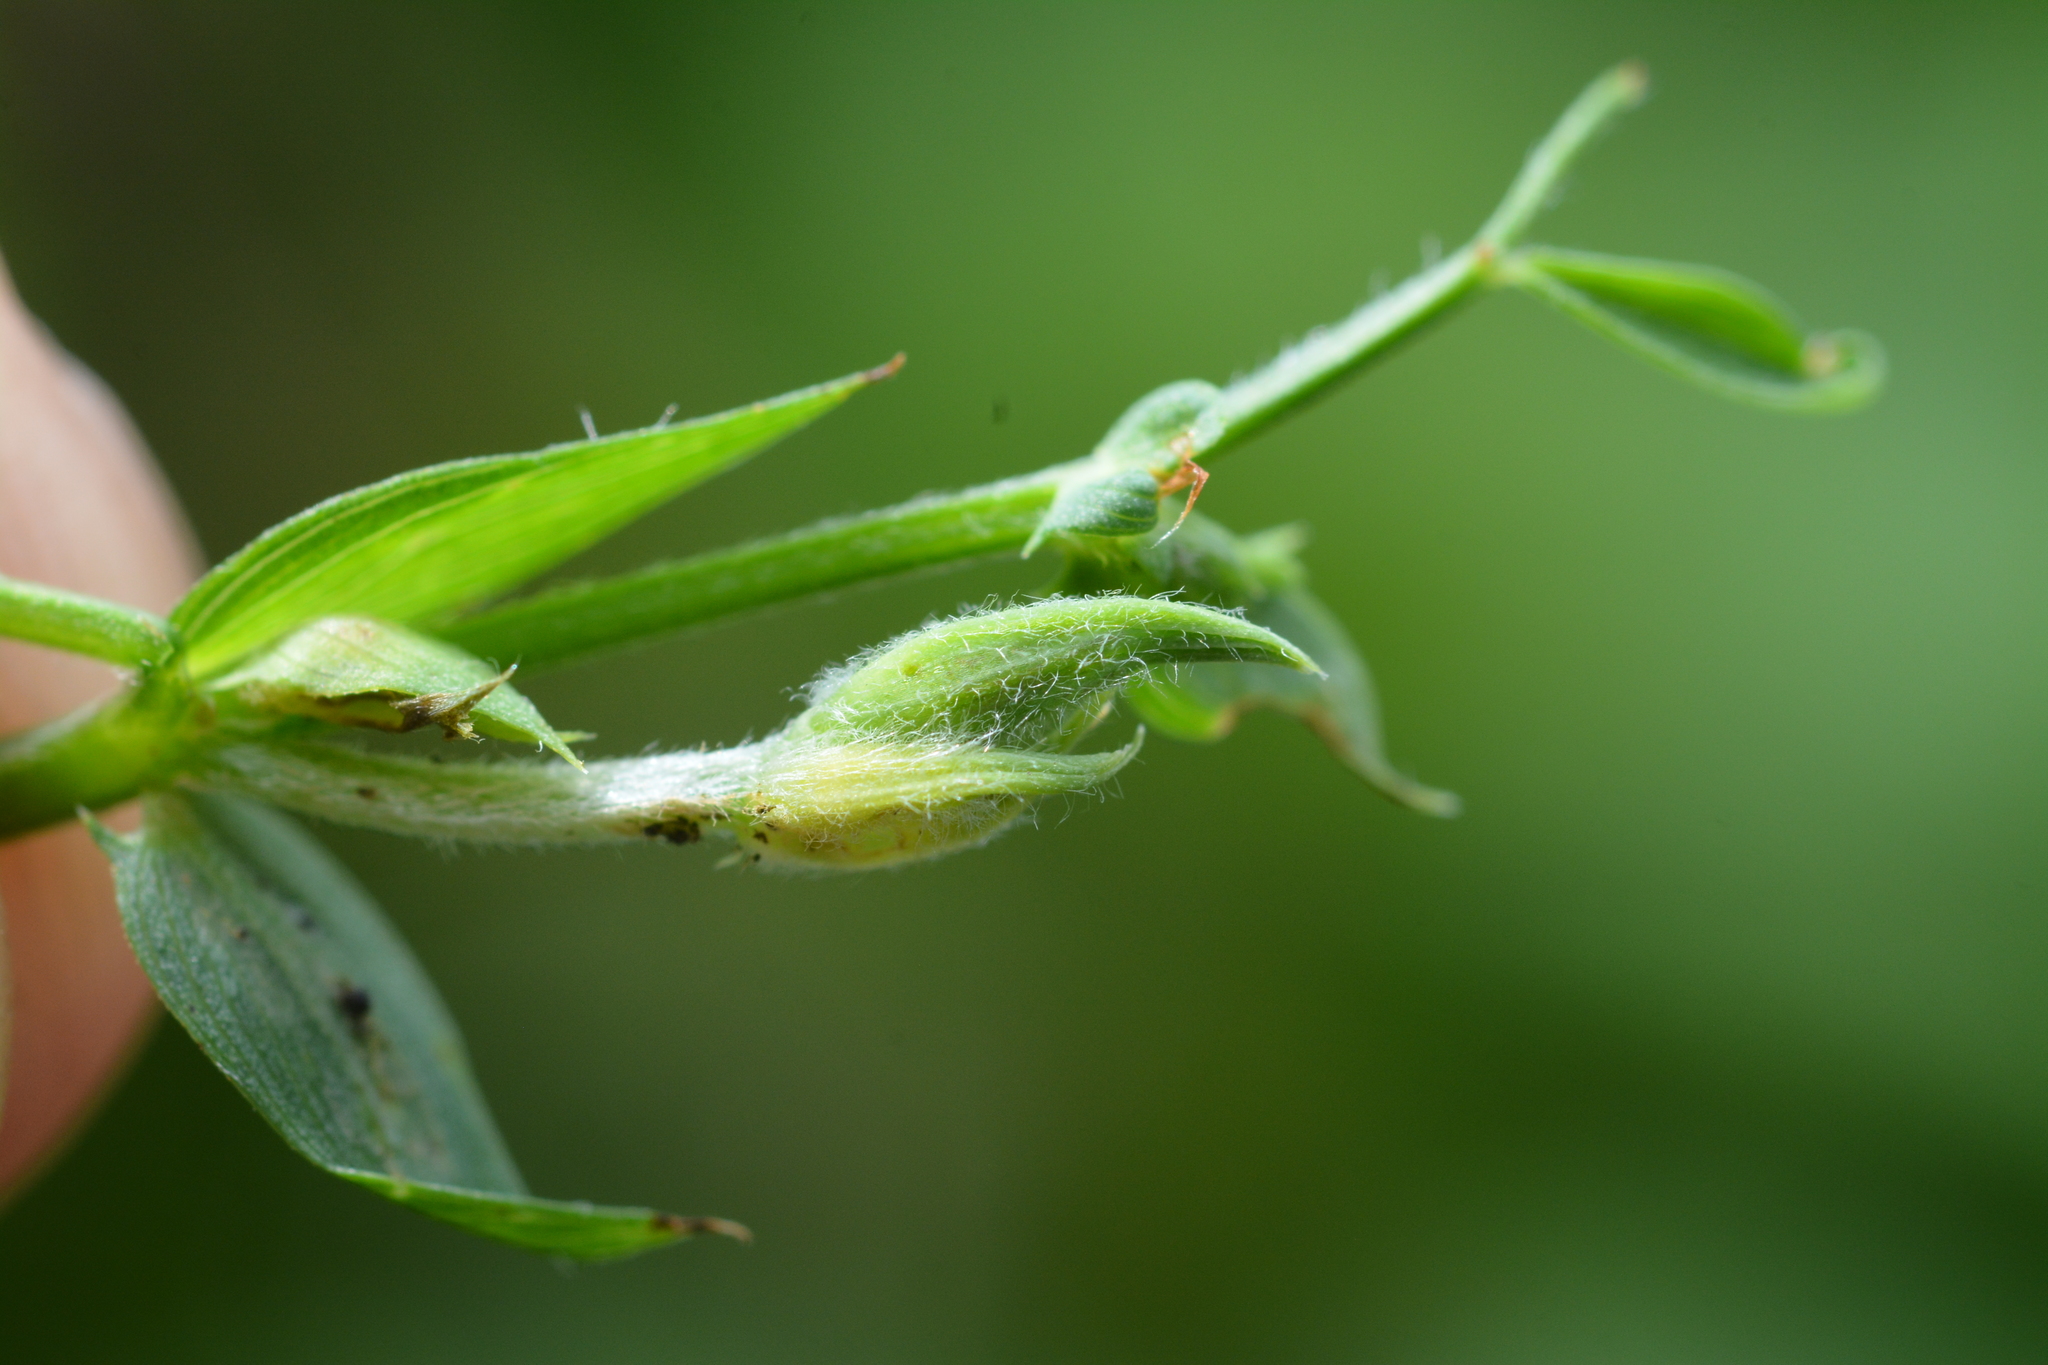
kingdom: Animalia
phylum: Arthropoda
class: Insecta
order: Diptera
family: Cecidomyiidae
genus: Dasineura
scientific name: Dasineura lathyricola
